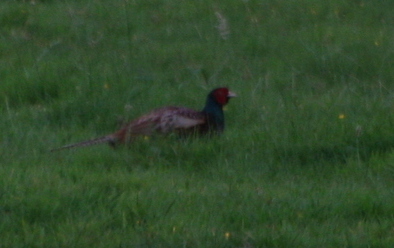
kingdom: Animalia
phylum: Chordata
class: Aves
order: Galliformes
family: Phasianidae
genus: Phasianus
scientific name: Phasianus colchicus
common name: Common pheasant
